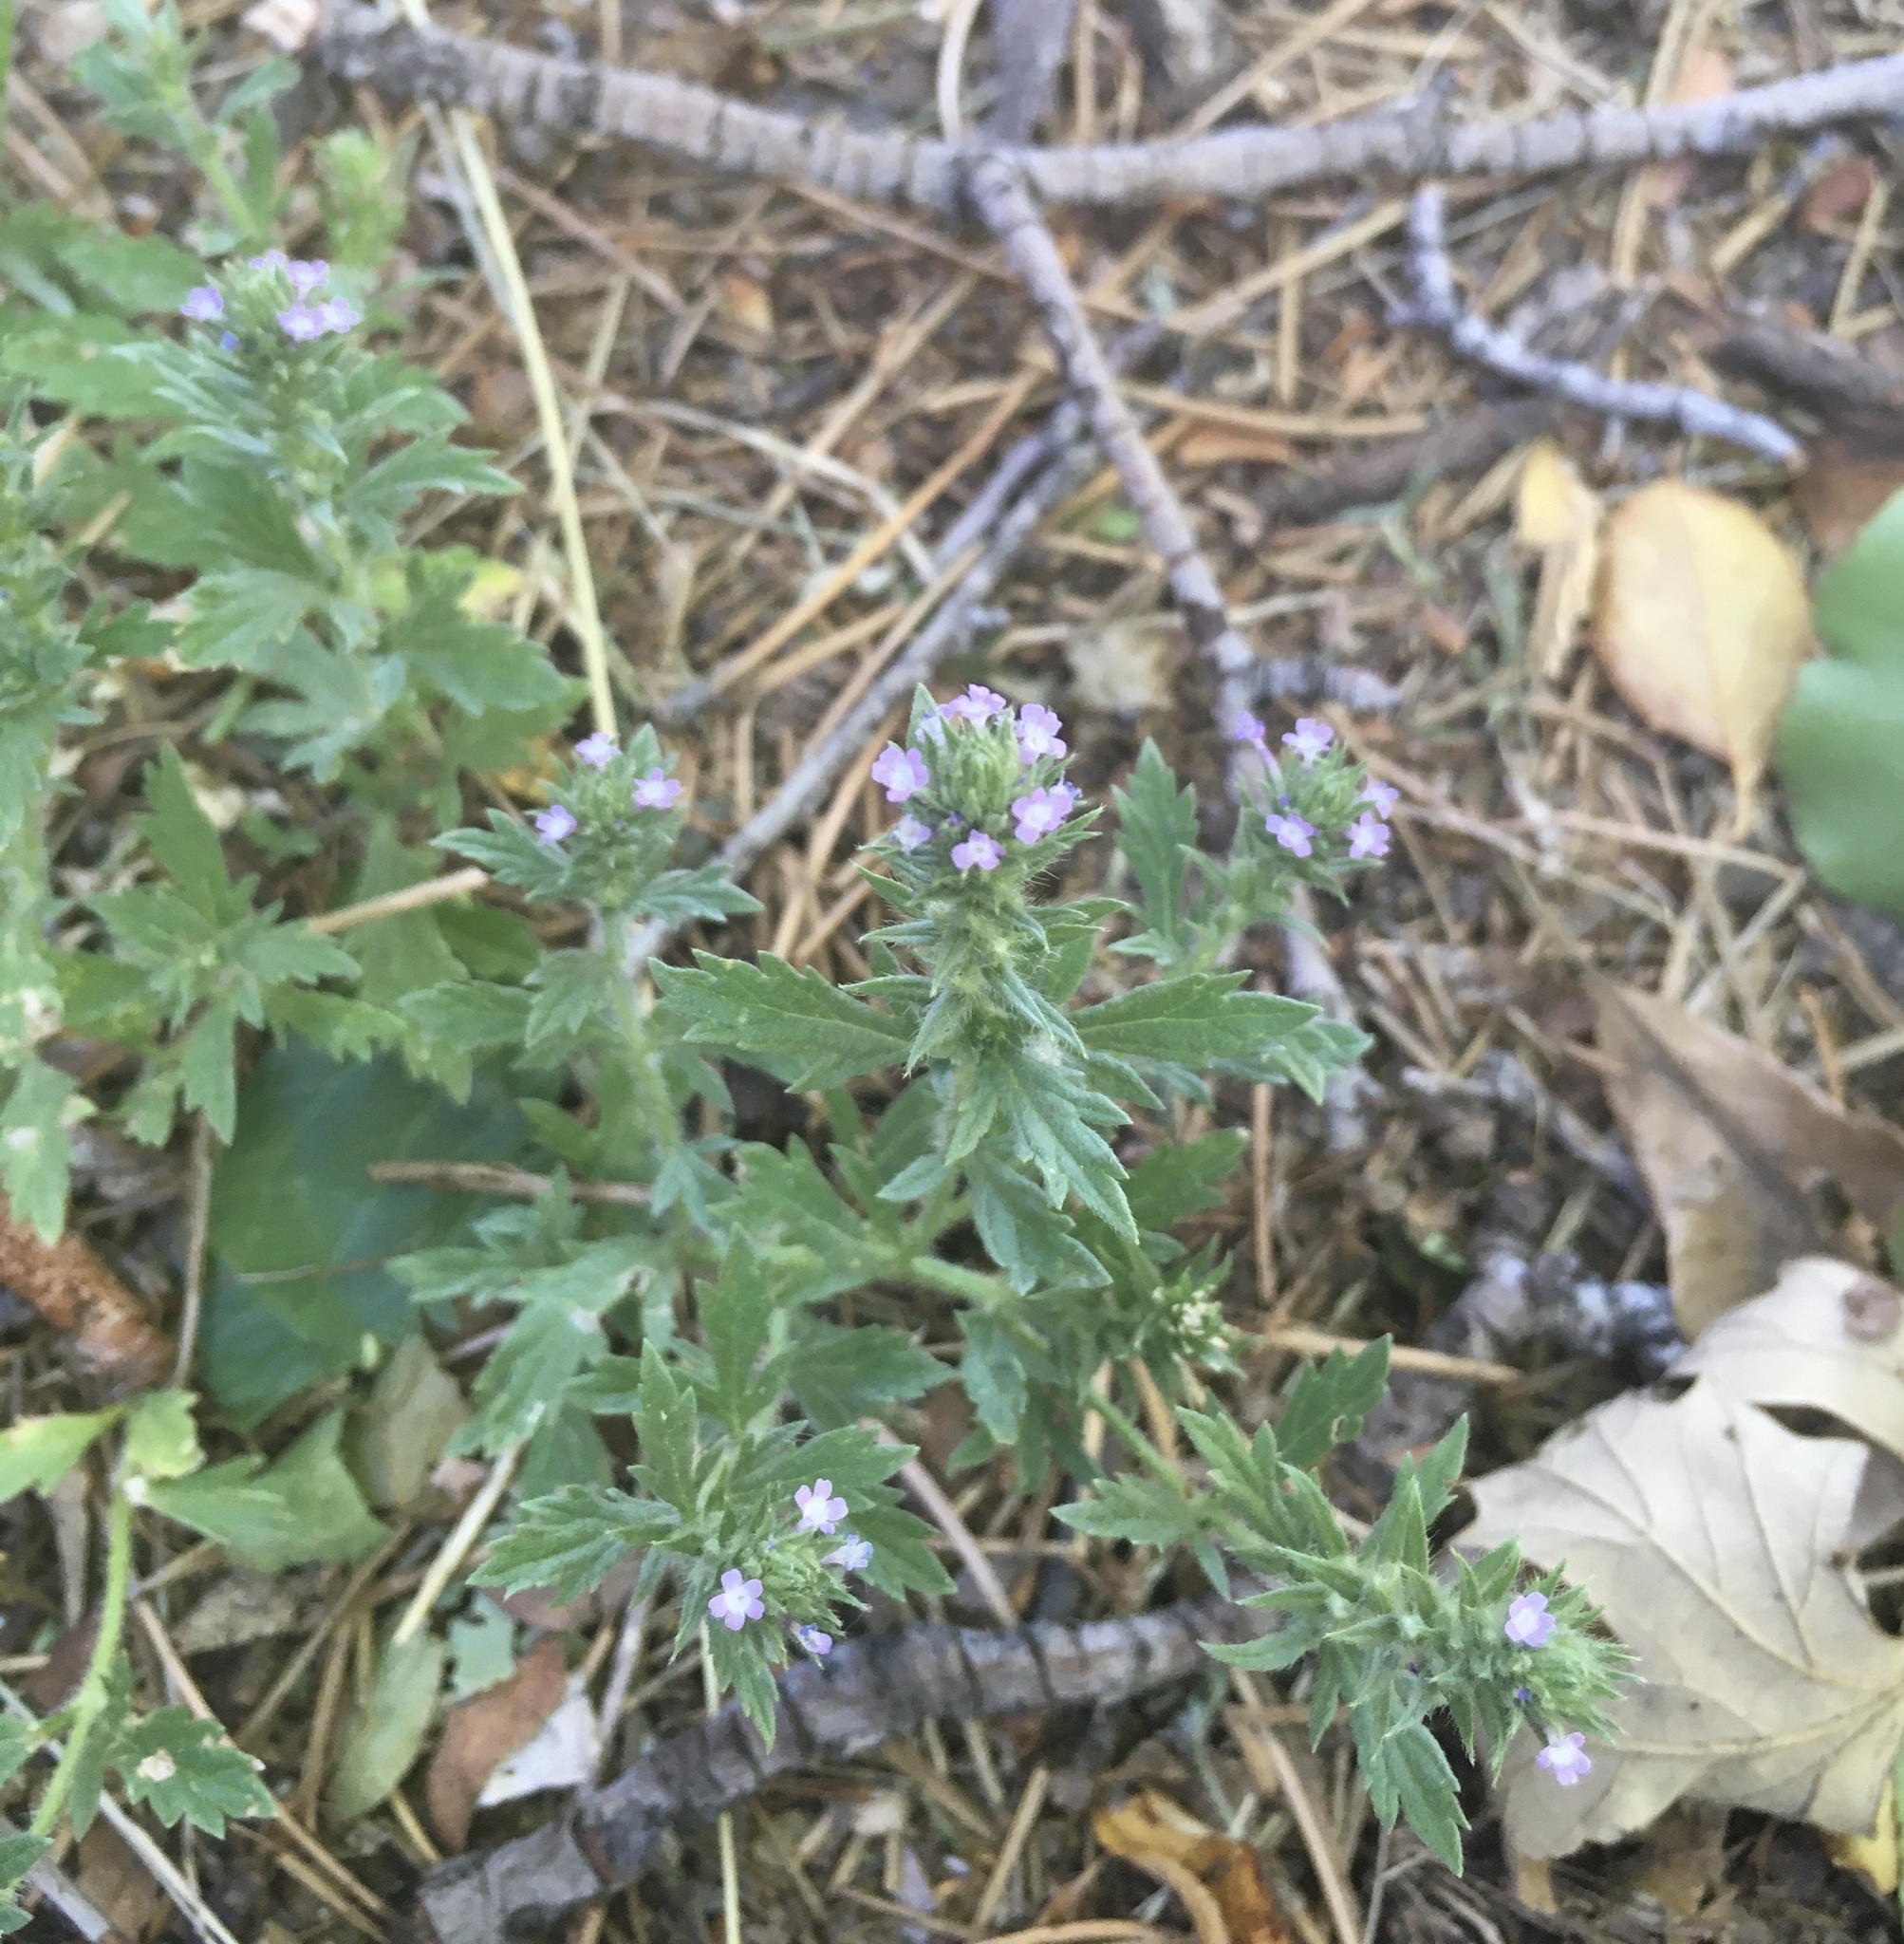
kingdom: Plantae
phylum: Tracheophyta
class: Magnoliopsida
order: Lamiales
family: Verbenaceae
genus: Verbena
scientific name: Verbena bracteata
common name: Bracted vervain
